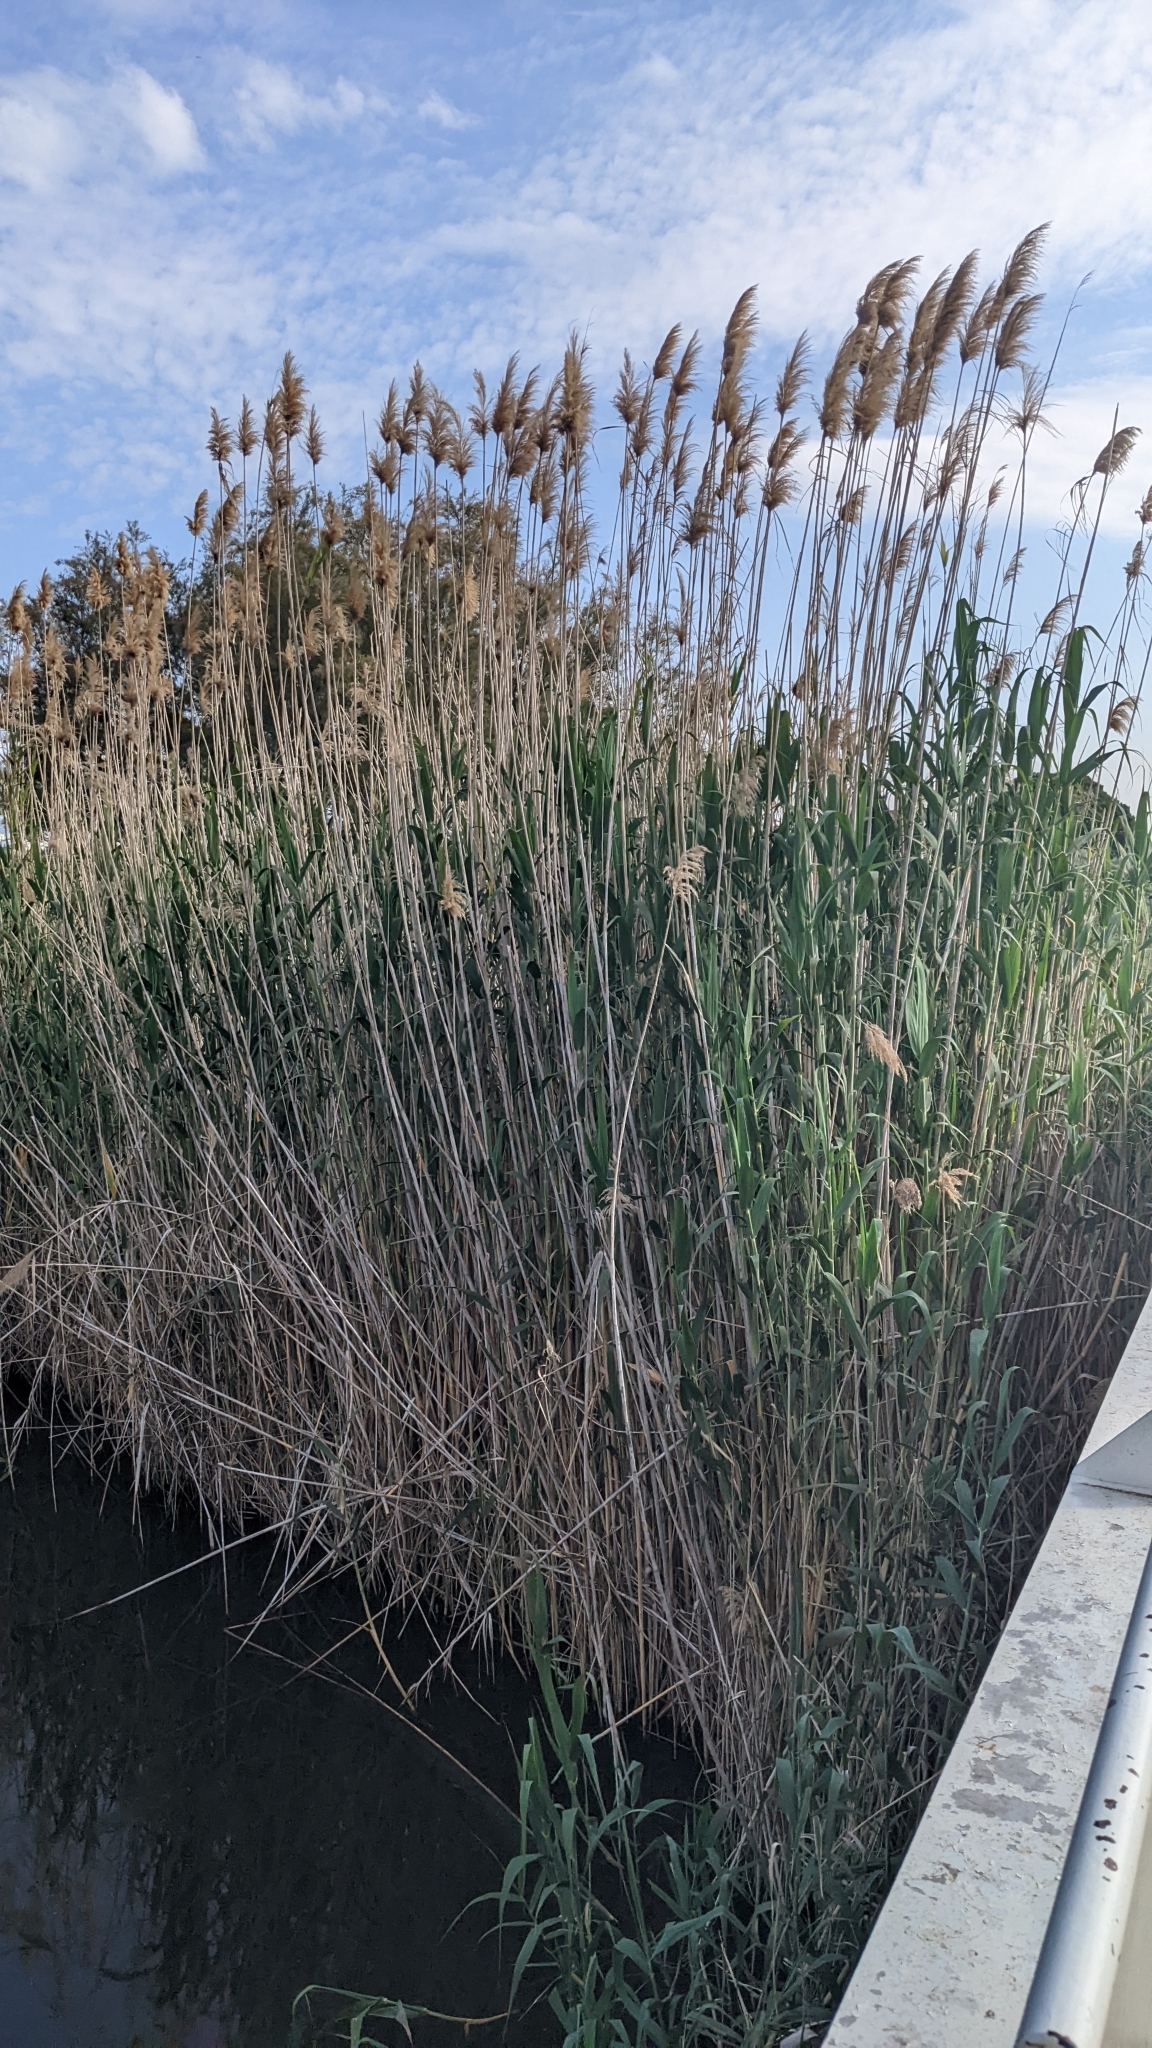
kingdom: Plantae
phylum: Tracheophyta
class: Liliopsida
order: Poales
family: Poaceae
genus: Phragmites
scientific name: Phragmites australis
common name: Common reed
